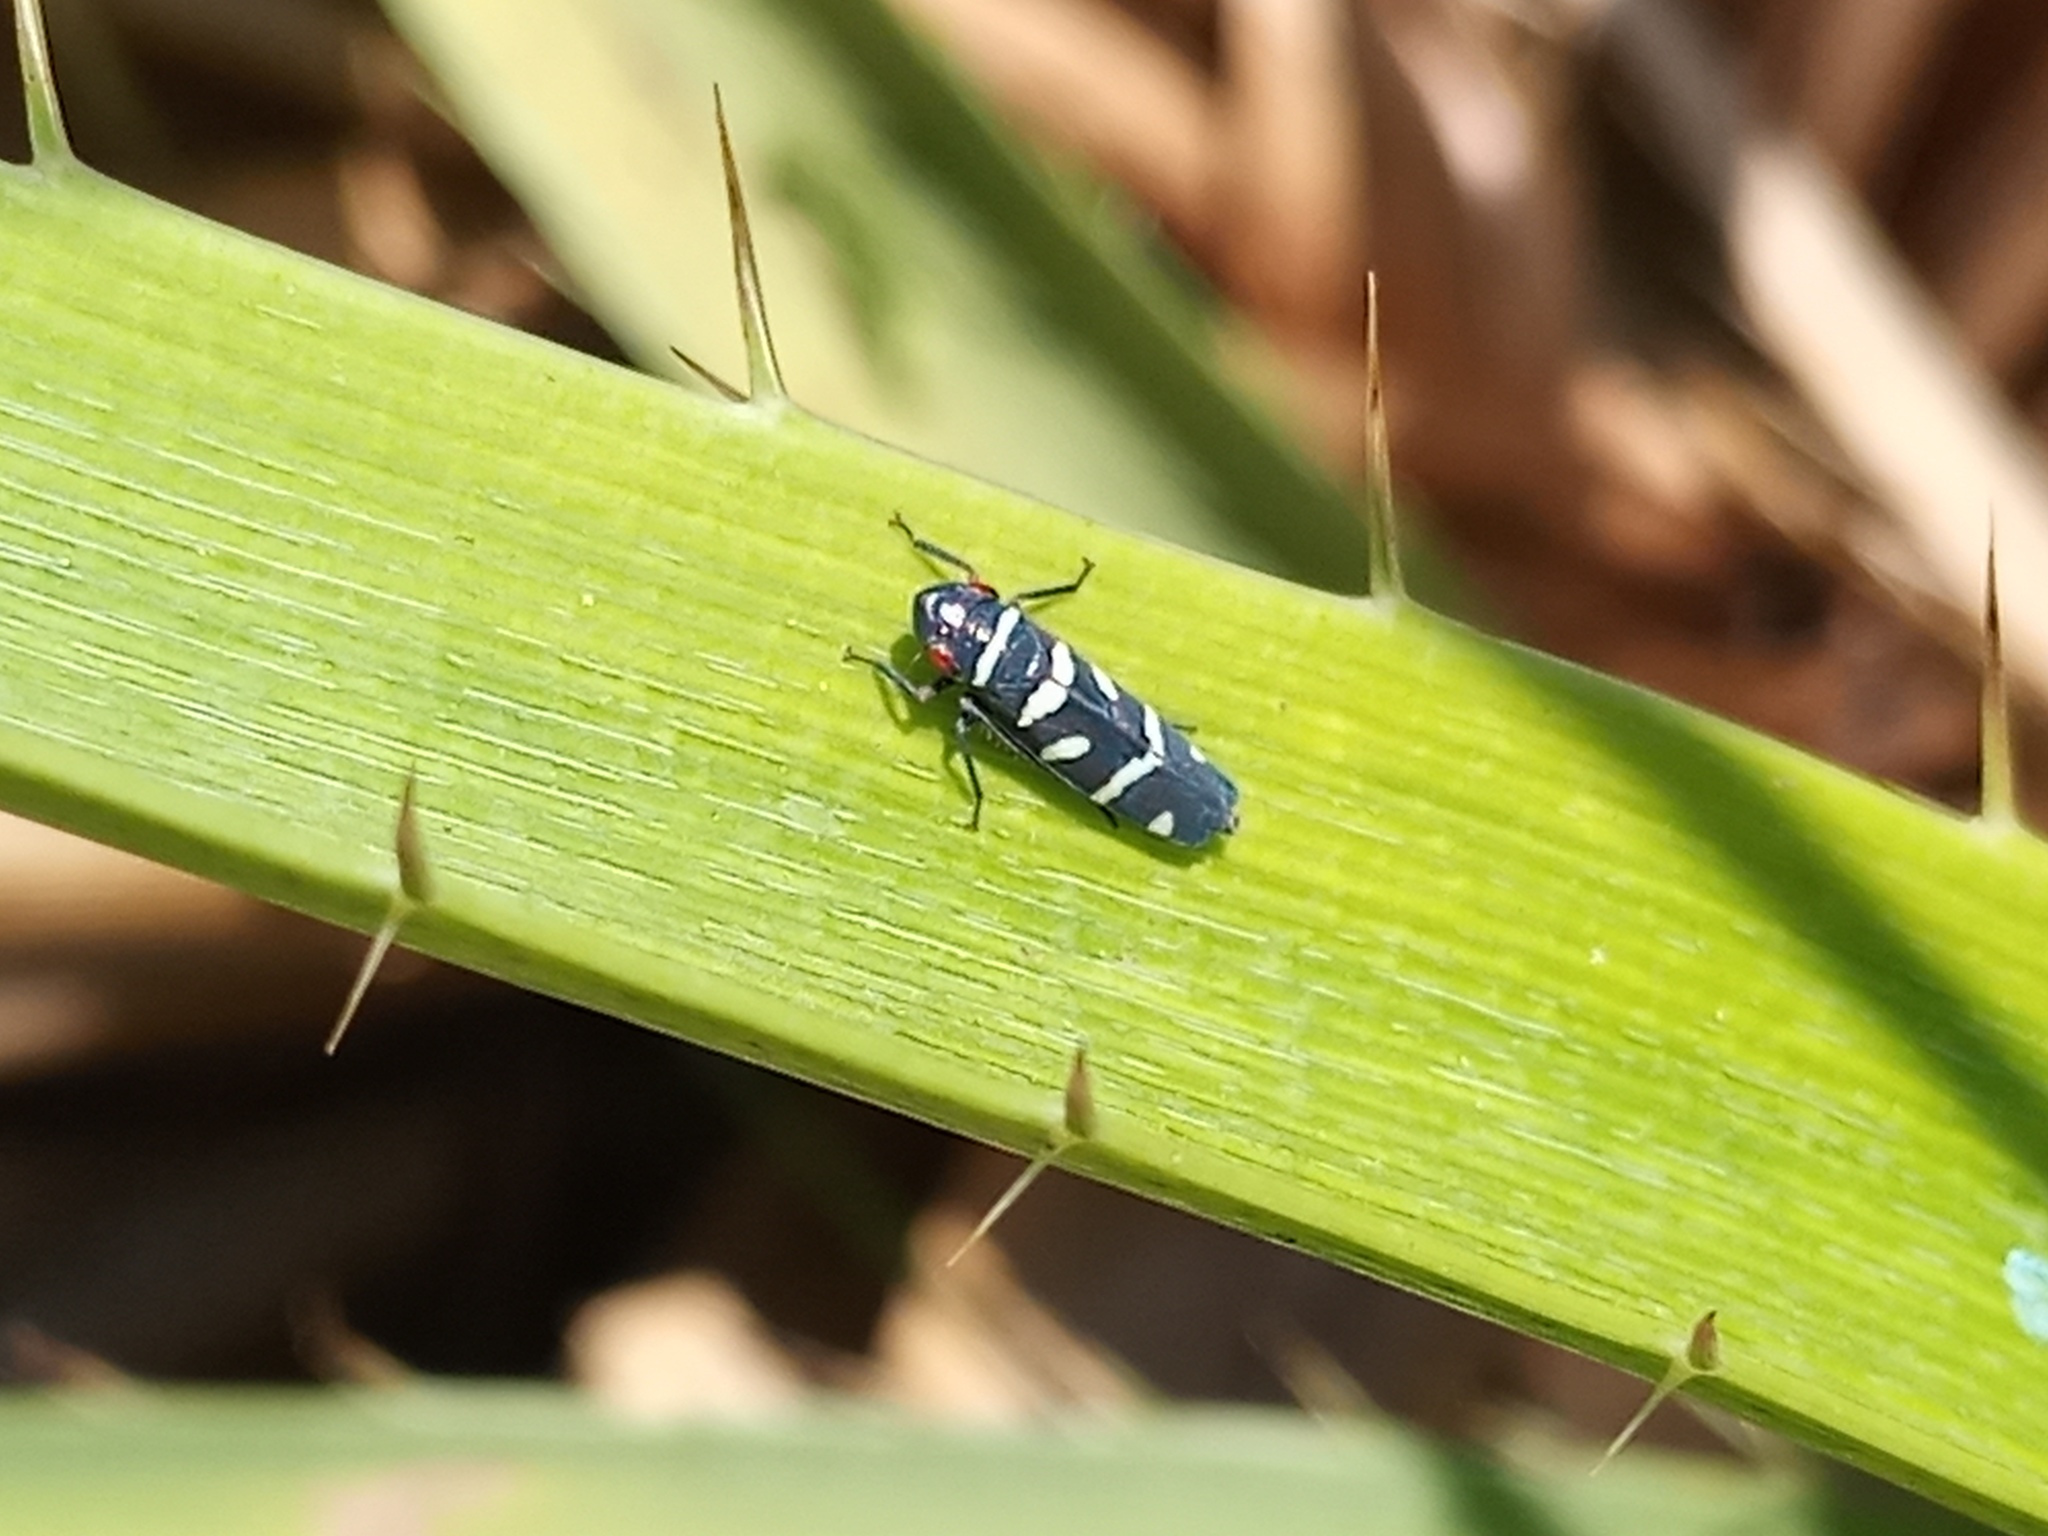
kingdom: Animalia
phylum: Arthropoda
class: Insecta
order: Hemiptera
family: Cicadellidae
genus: Balacha
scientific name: Balacha melanocephala
